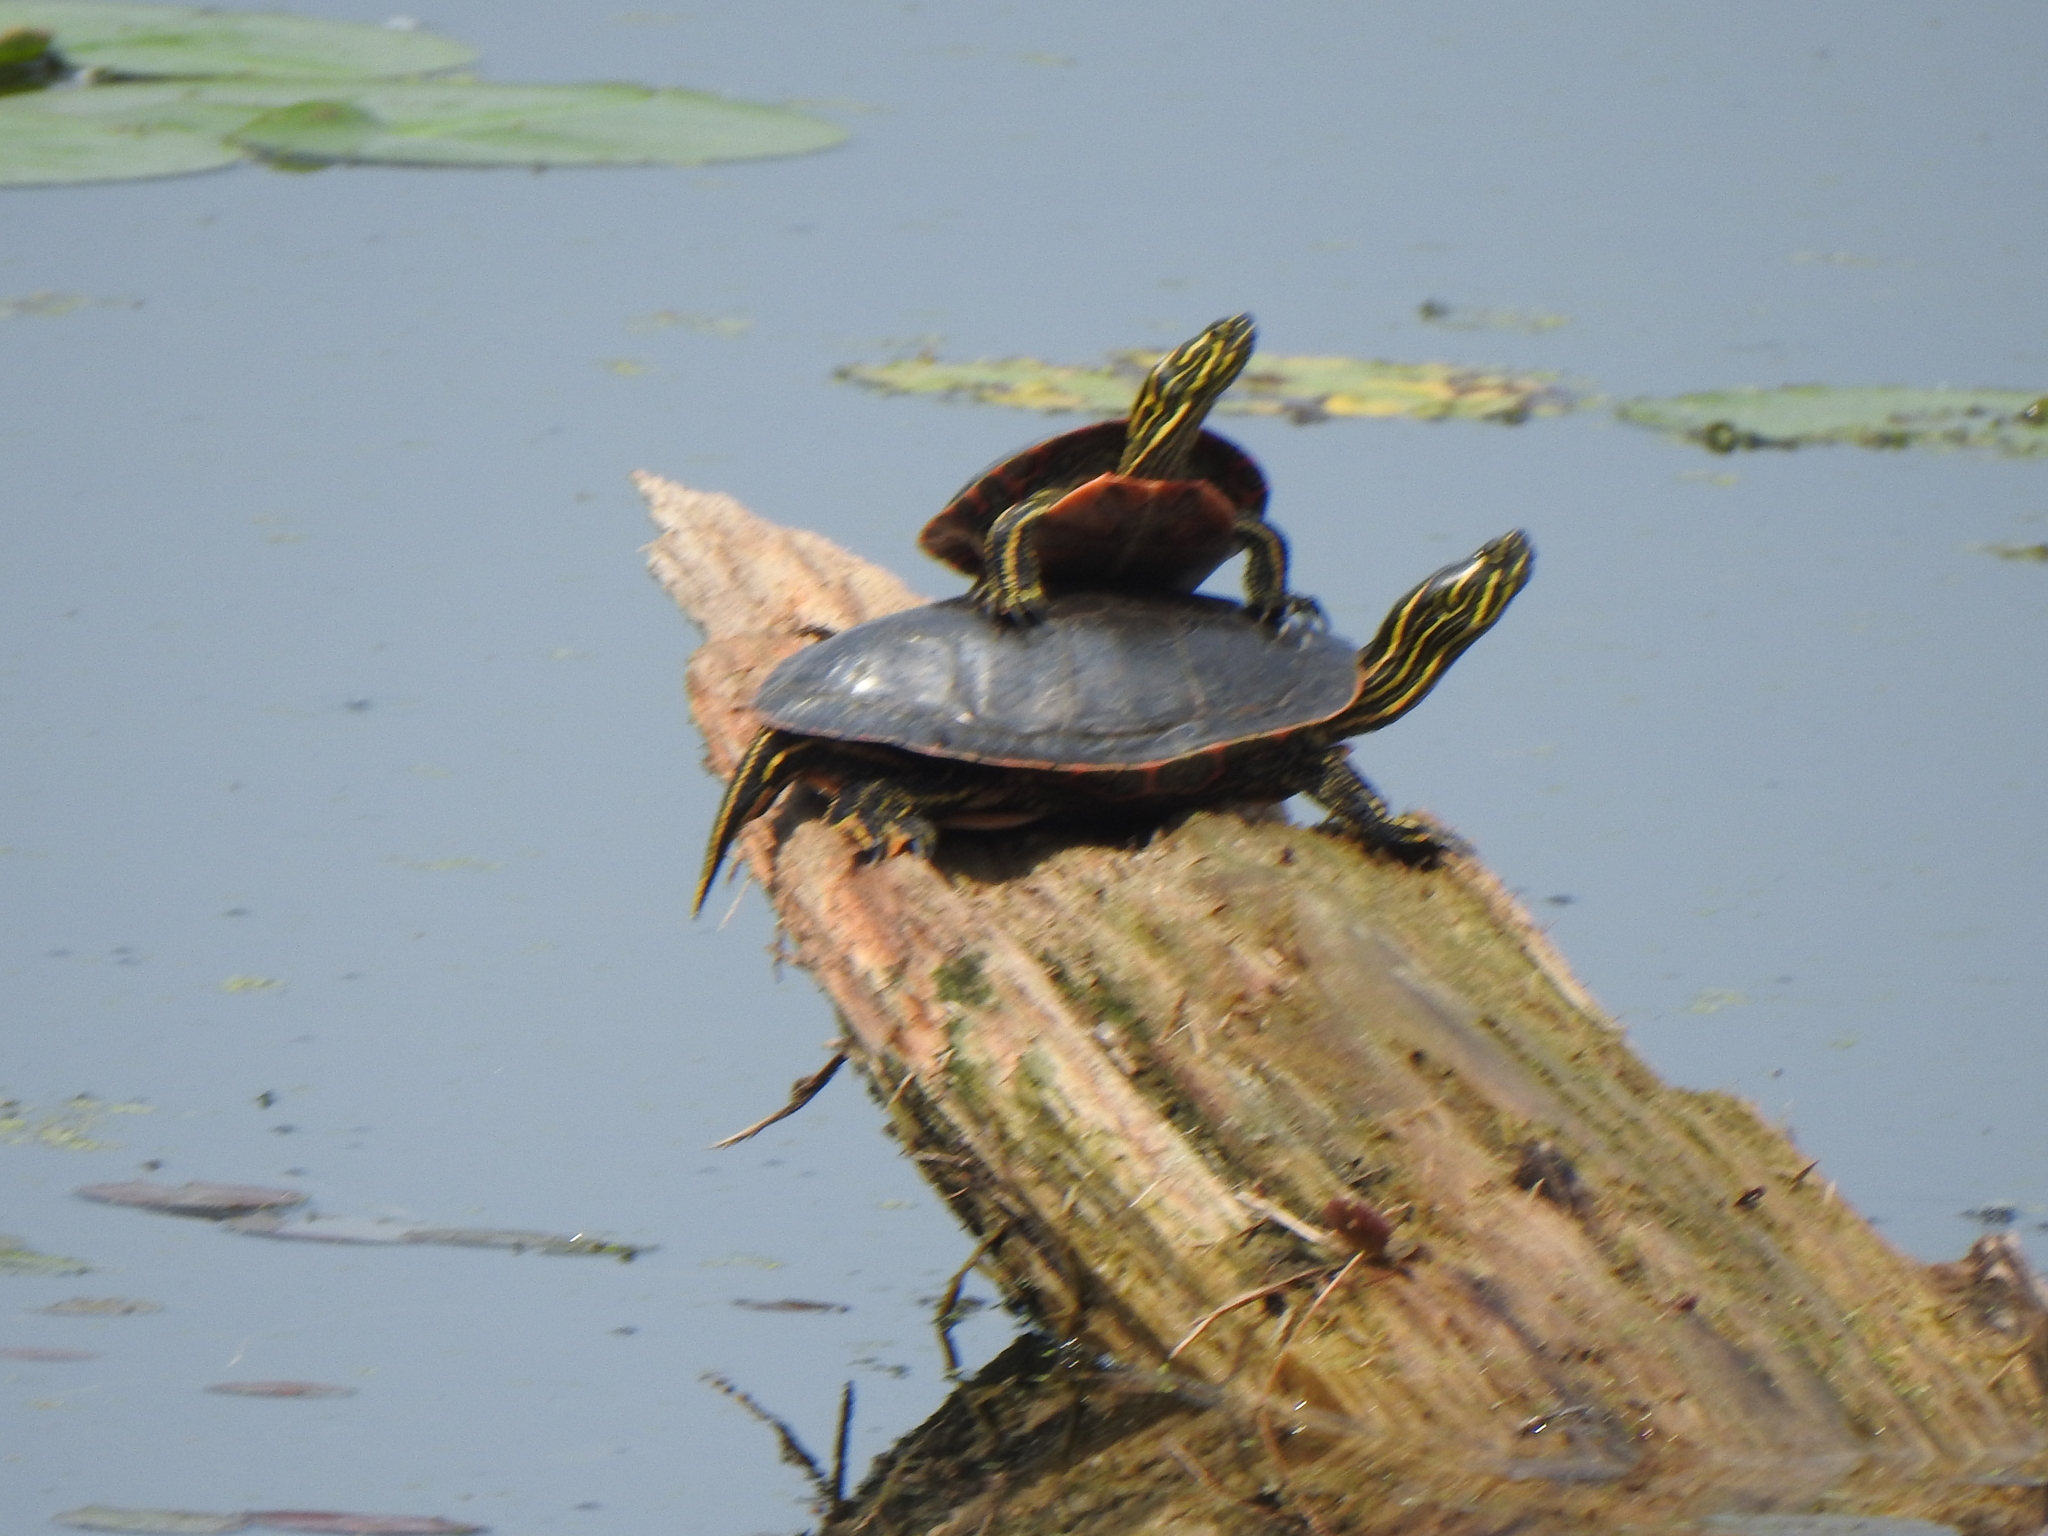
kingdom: Animalia
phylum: Chordata
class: Testudines
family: Emydidae
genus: Chrysemys
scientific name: Chrysemys picta
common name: Painted turtle
